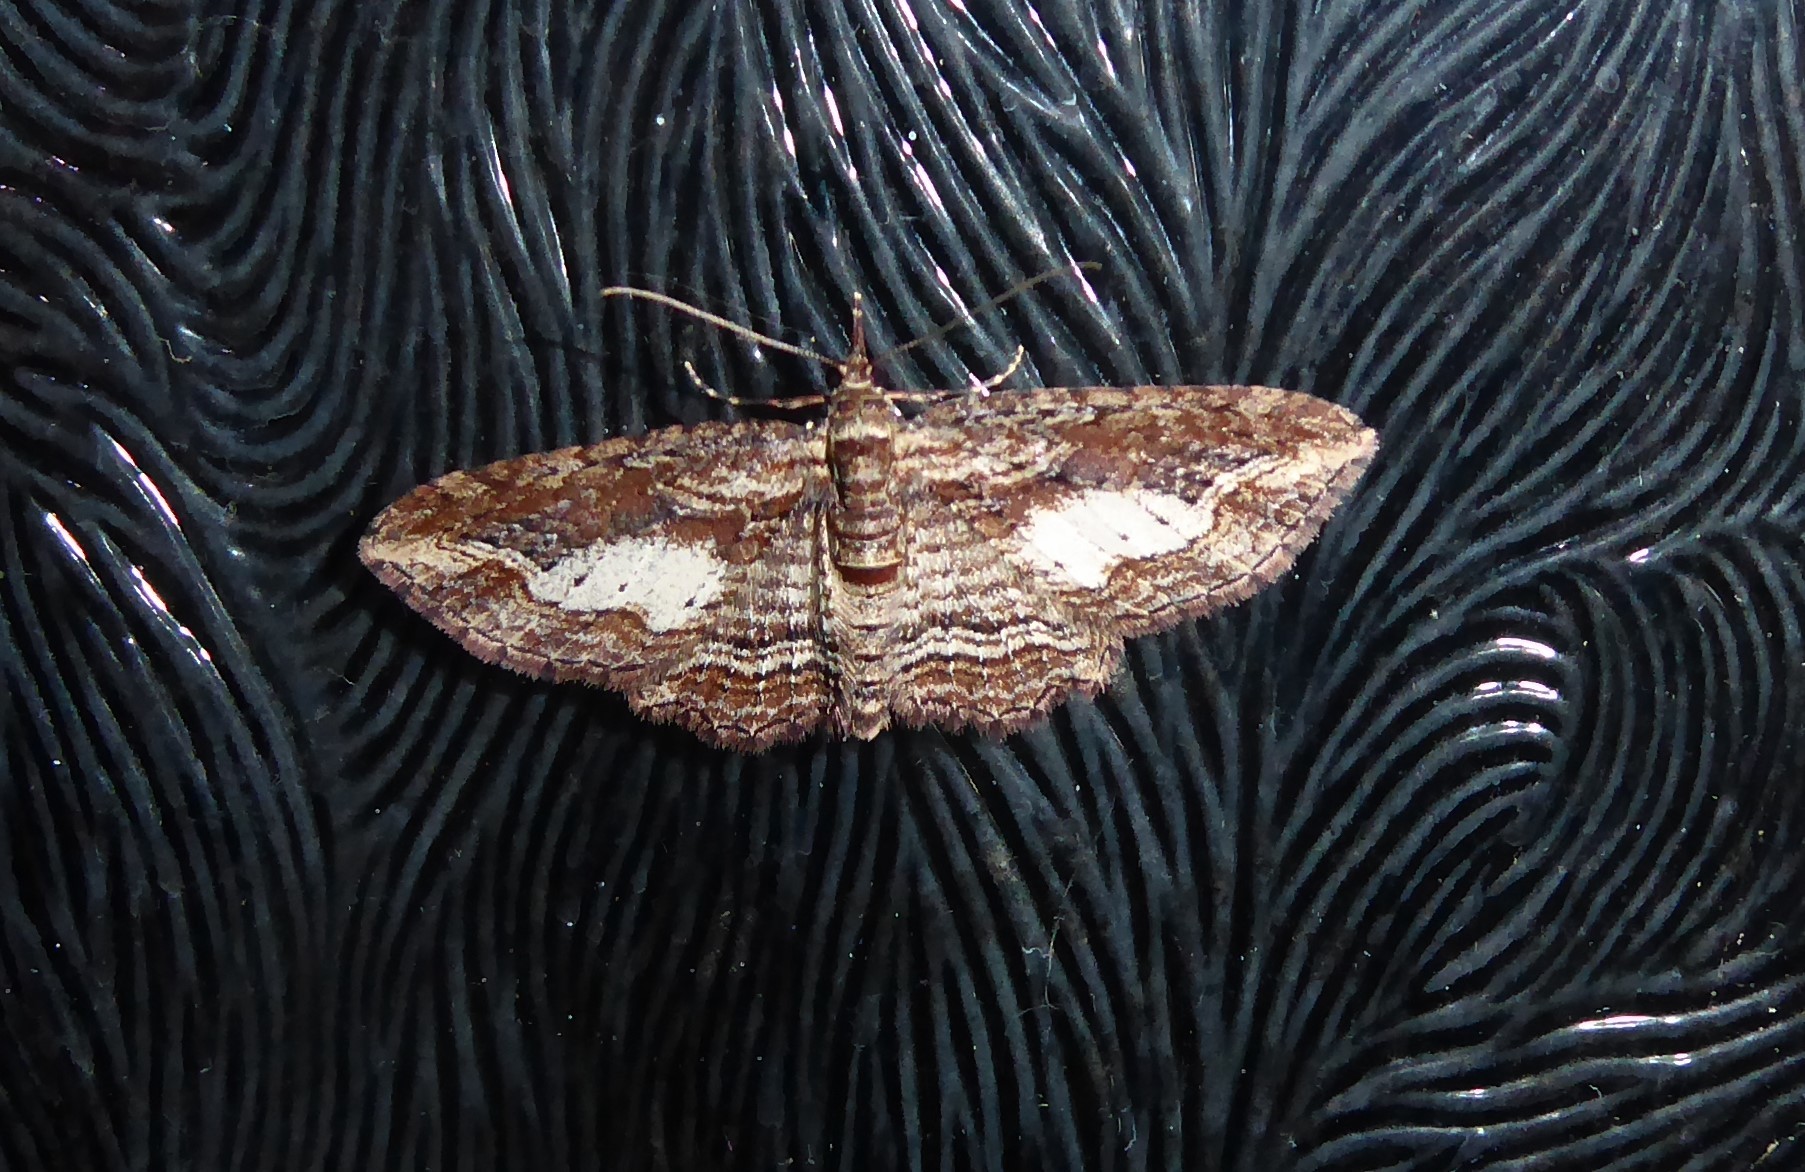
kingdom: Animalia
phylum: Arthropoda
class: Insecta
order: Lepidoptera
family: Geometridae
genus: Chloroclystis
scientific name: Chloroclystis filata
